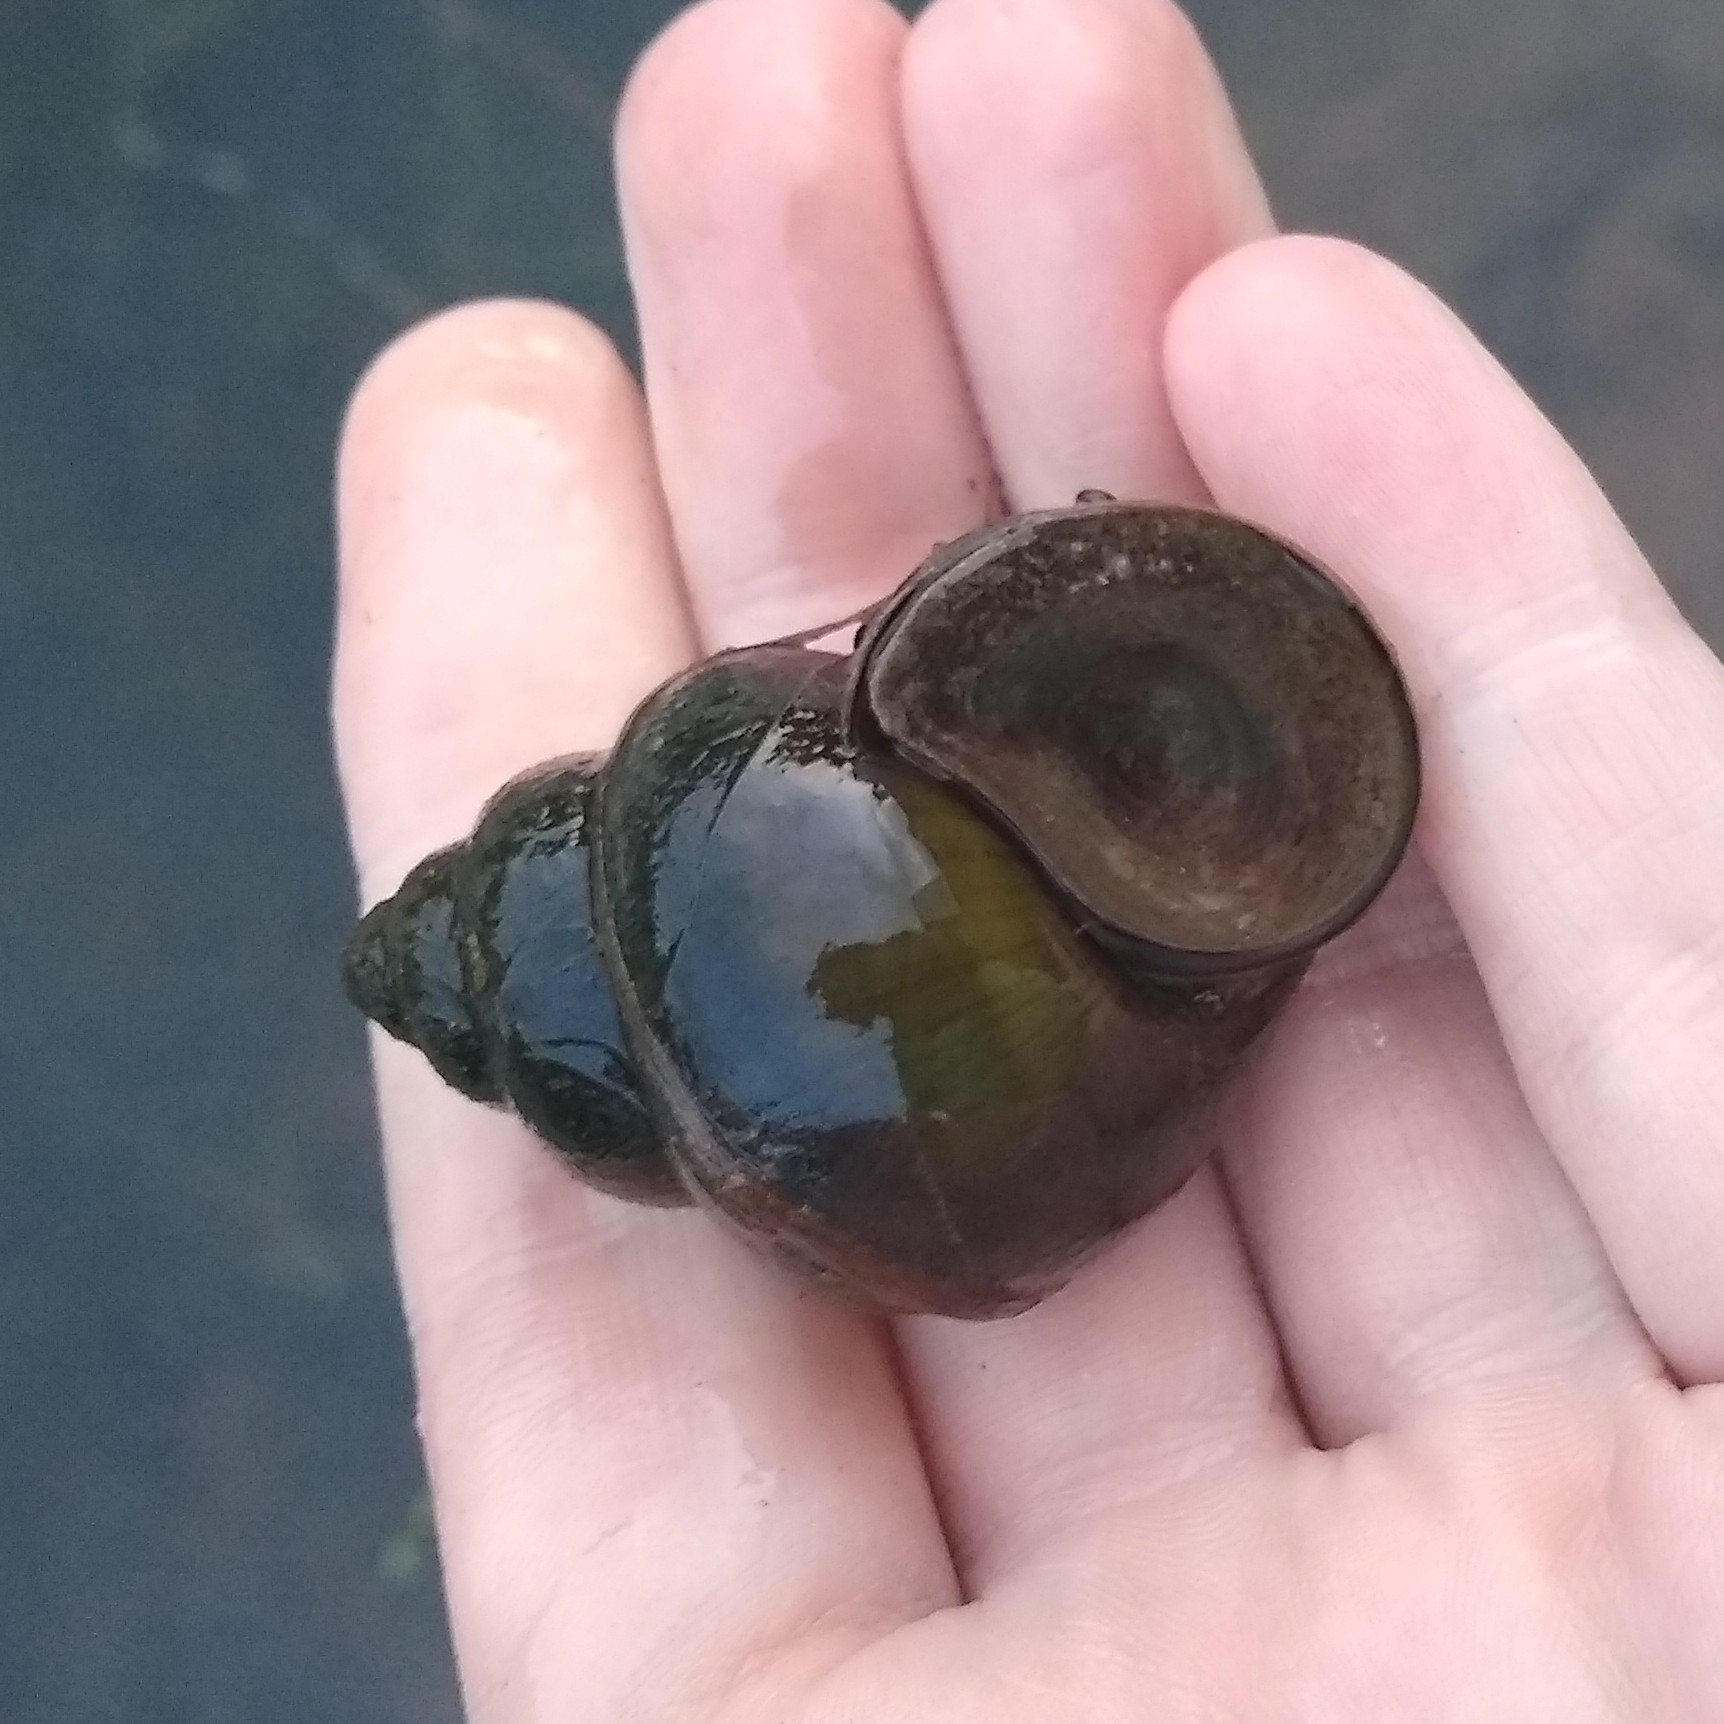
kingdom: Animalia
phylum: Mollusca
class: Gastropoda
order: Architaenioglossa
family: Viviparidae
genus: Cipangopaludina
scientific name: Cipangopaludina chinensis
